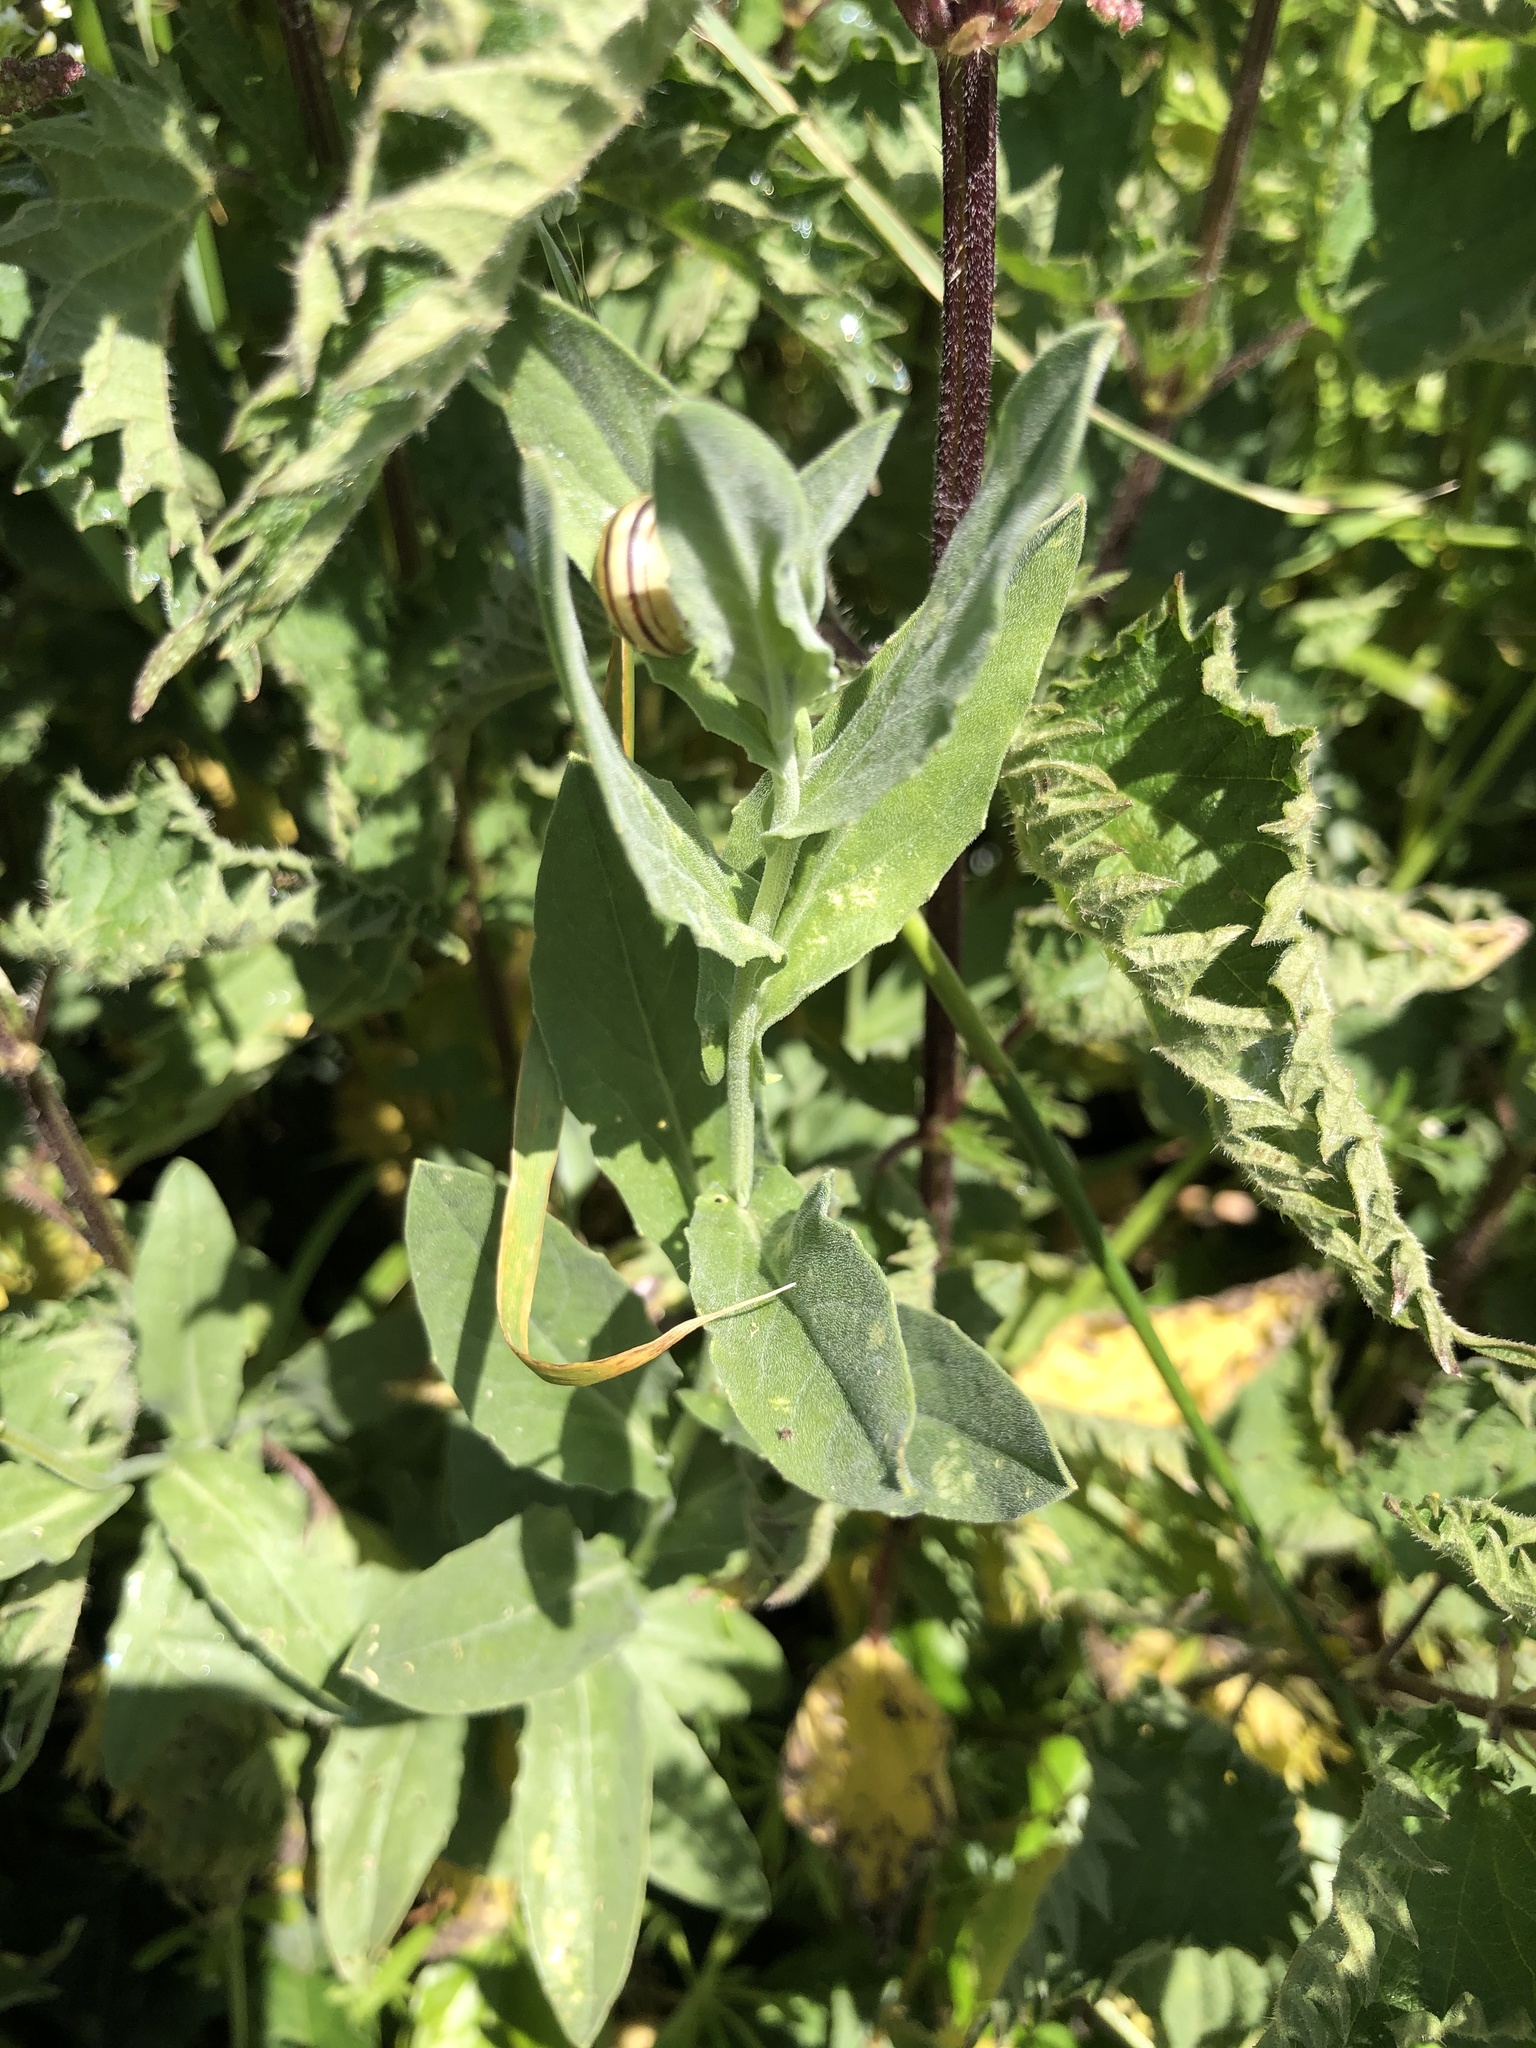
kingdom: Plantae
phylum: Tracheophyta
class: Magnoliopsida
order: Brassicales
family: Brassicaceae
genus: Lepidium
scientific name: Lepidium draba
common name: Hoary cress
